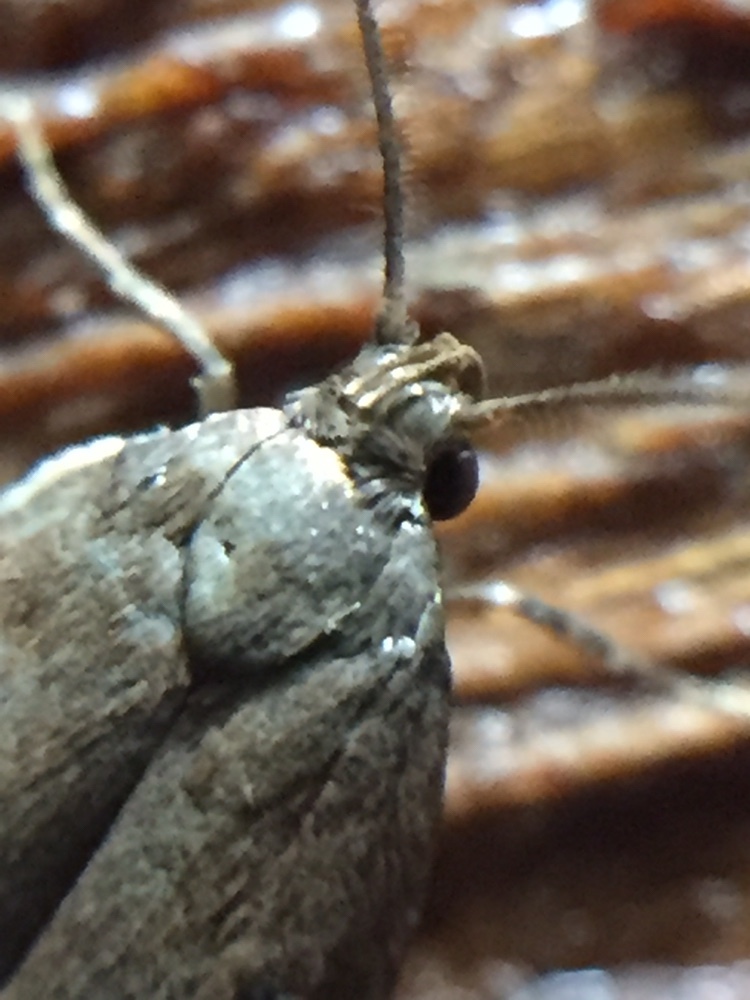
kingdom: Animalia
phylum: Arthropoda
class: Insecta
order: Lepidoptera
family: Oecophoridae
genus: Tachystola
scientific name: Tachystola acroxantha
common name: Ruddy streak
